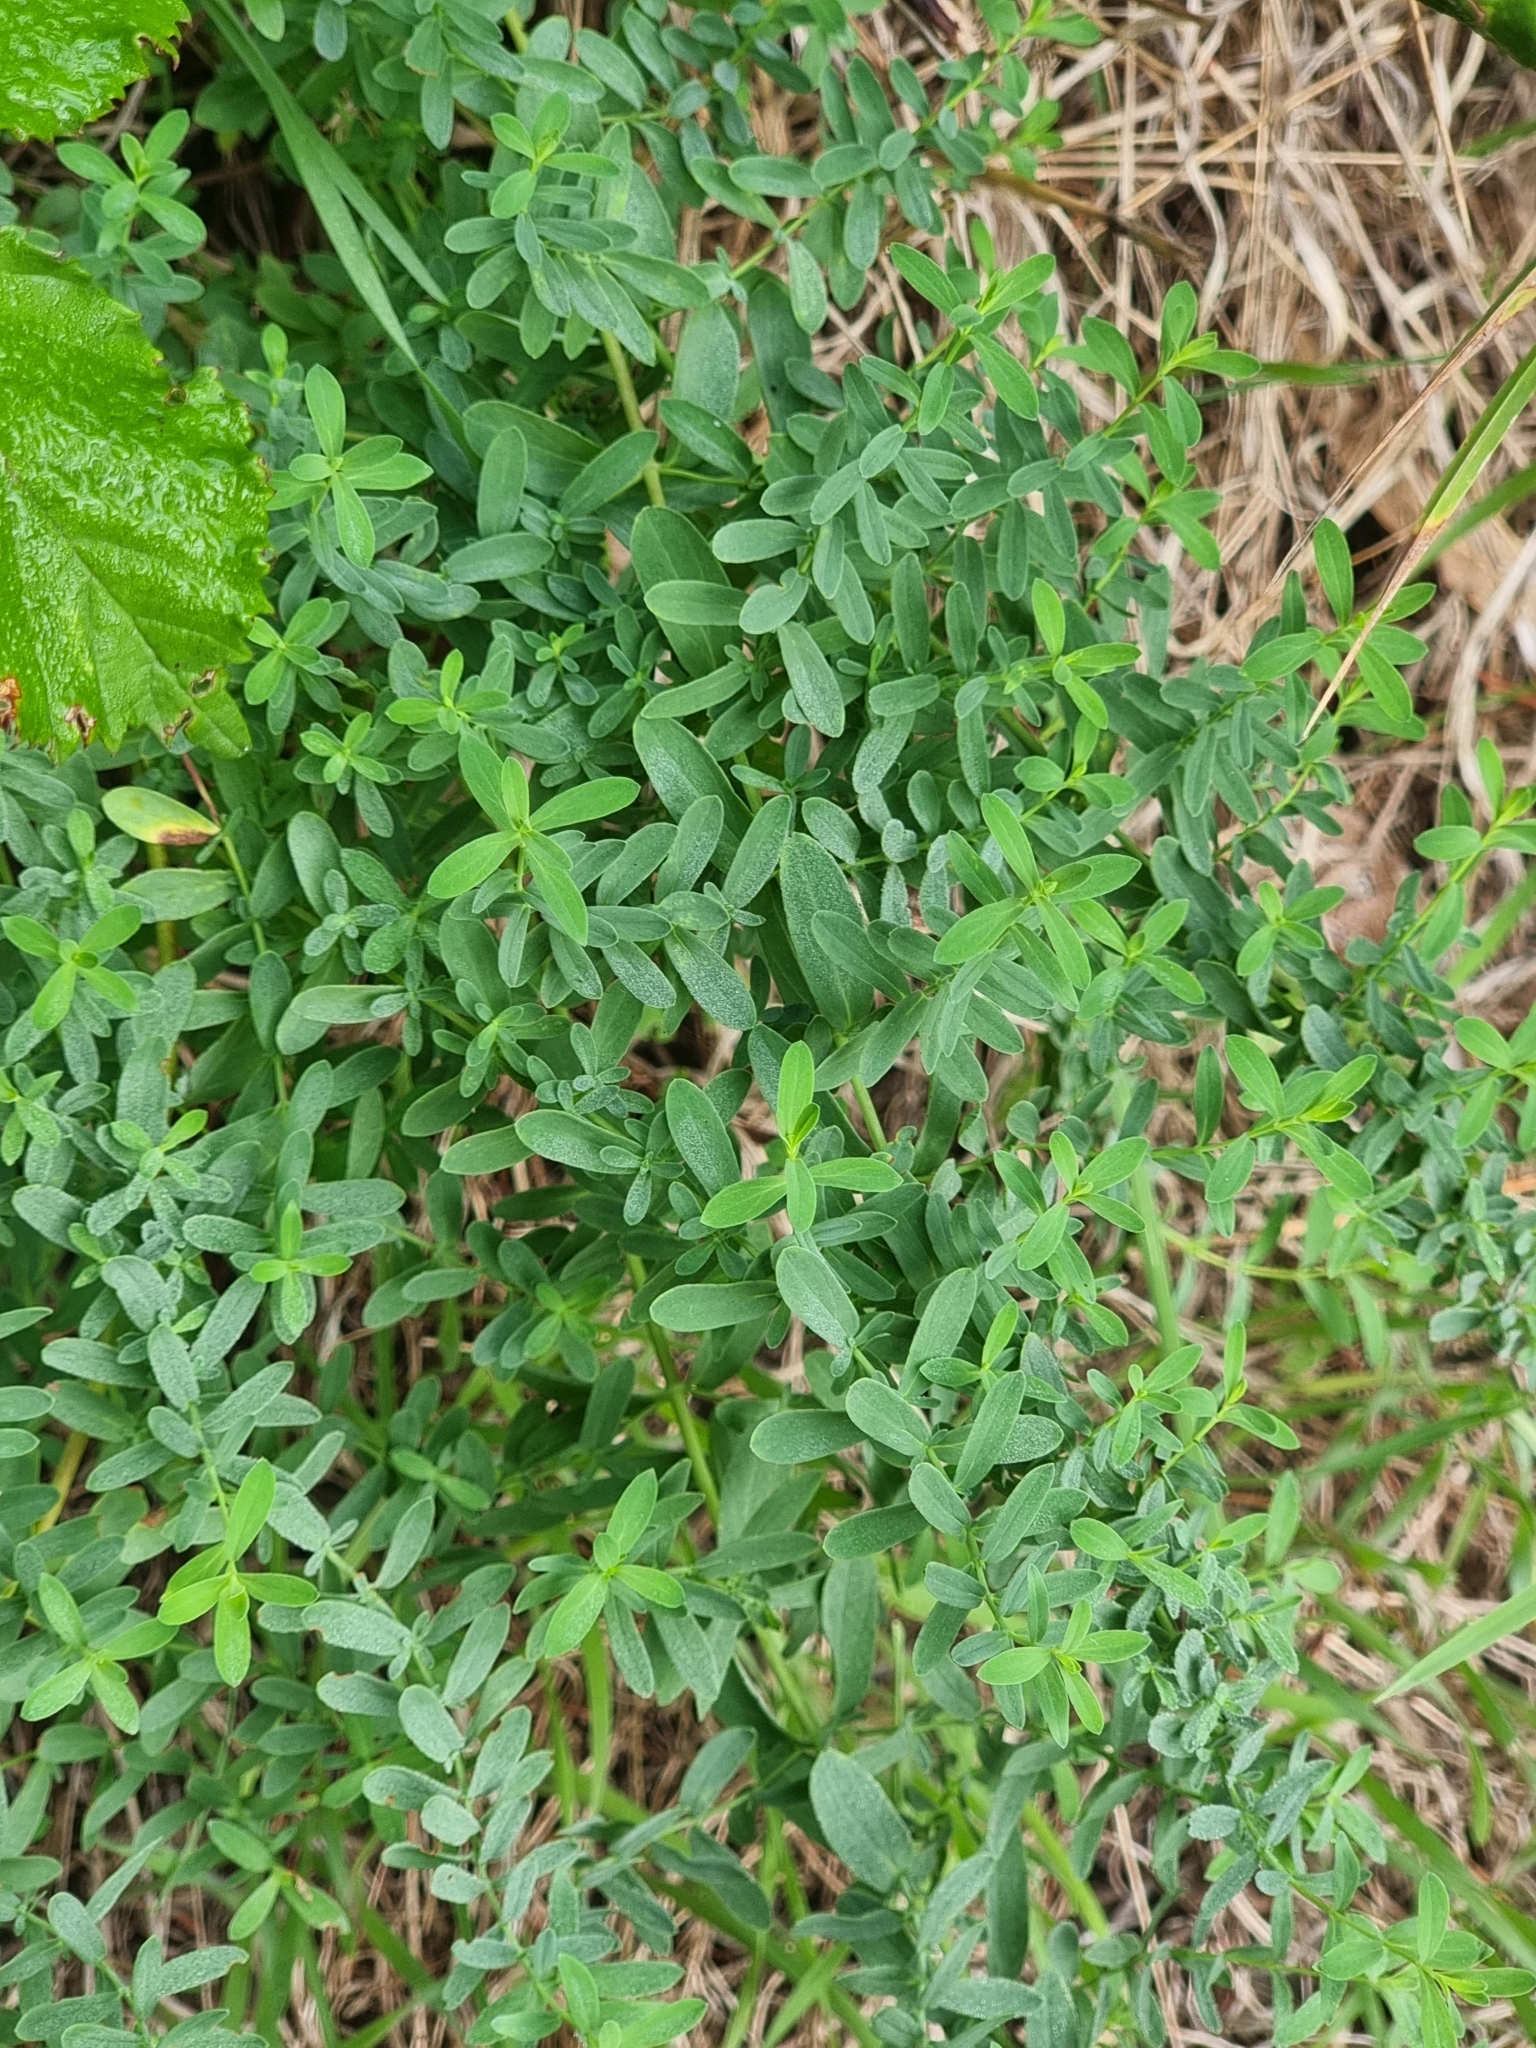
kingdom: Plantae
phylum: Tracheophyta
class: Magnoliopsida
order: Malpighiales
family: Hypericaceae
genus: Hypericum
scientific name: Hypericum perforatum
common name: Common st. johnswort
